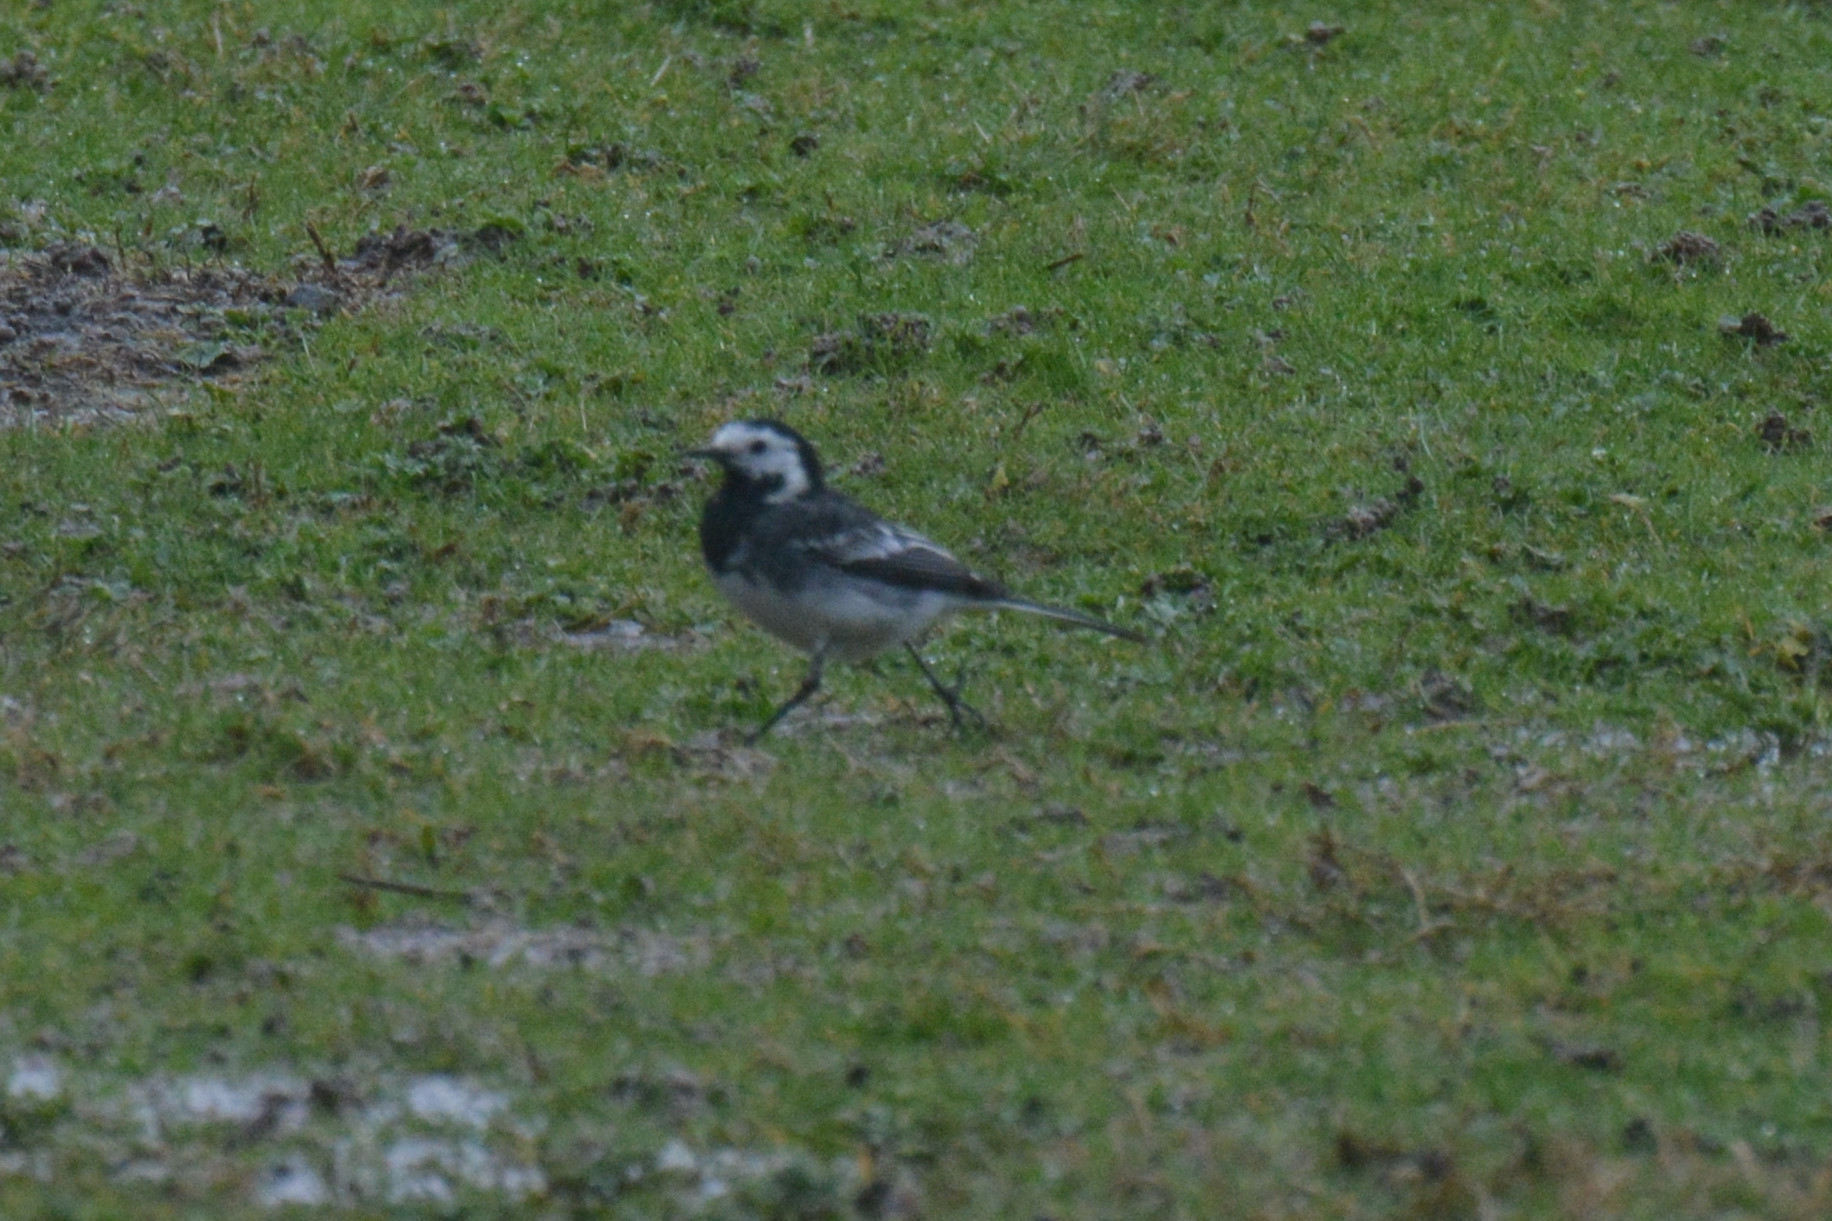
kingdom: Animalia
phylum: Chordata
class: Aves
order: Passeriformes
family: Motacillidae
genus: Motacilla
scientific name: Motacilla alba
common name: White wagtail
